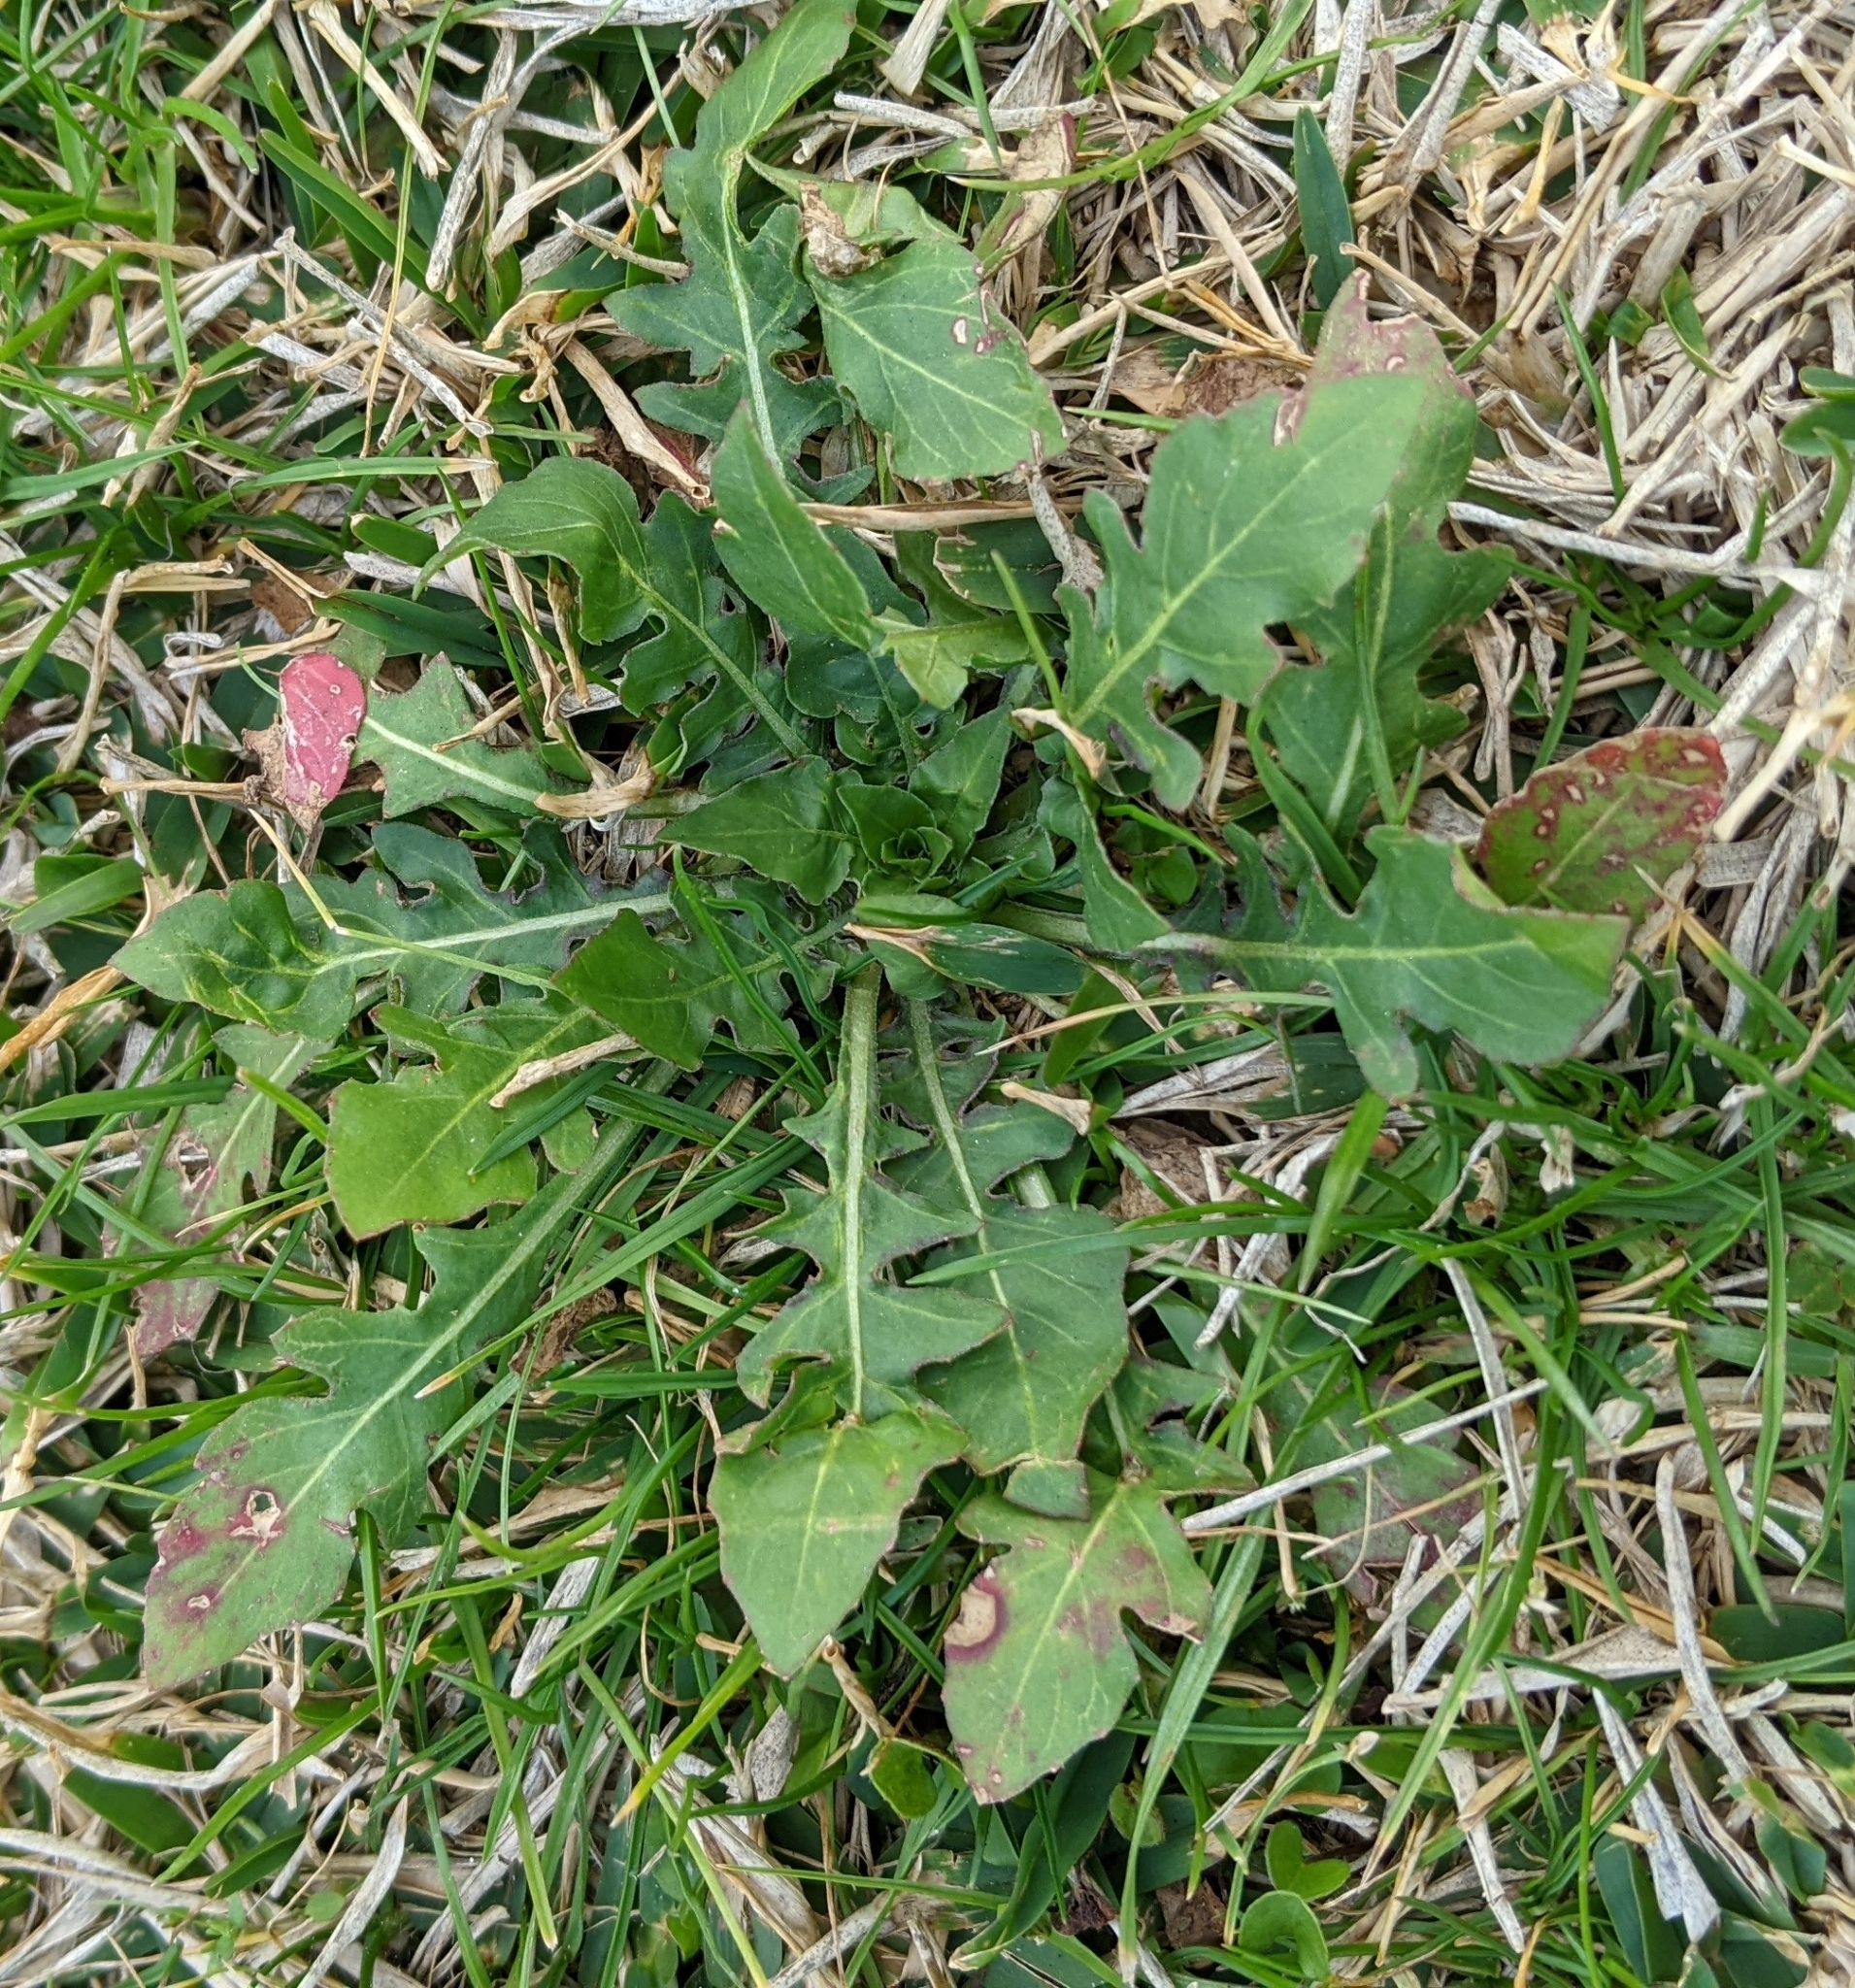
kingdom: Plantae
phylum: Tracheophyta
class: Magnoliopsida
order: Asterales
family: Asteraceae
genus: Taraxacum
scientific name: Taraxacum officinale
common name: Common dandelion
